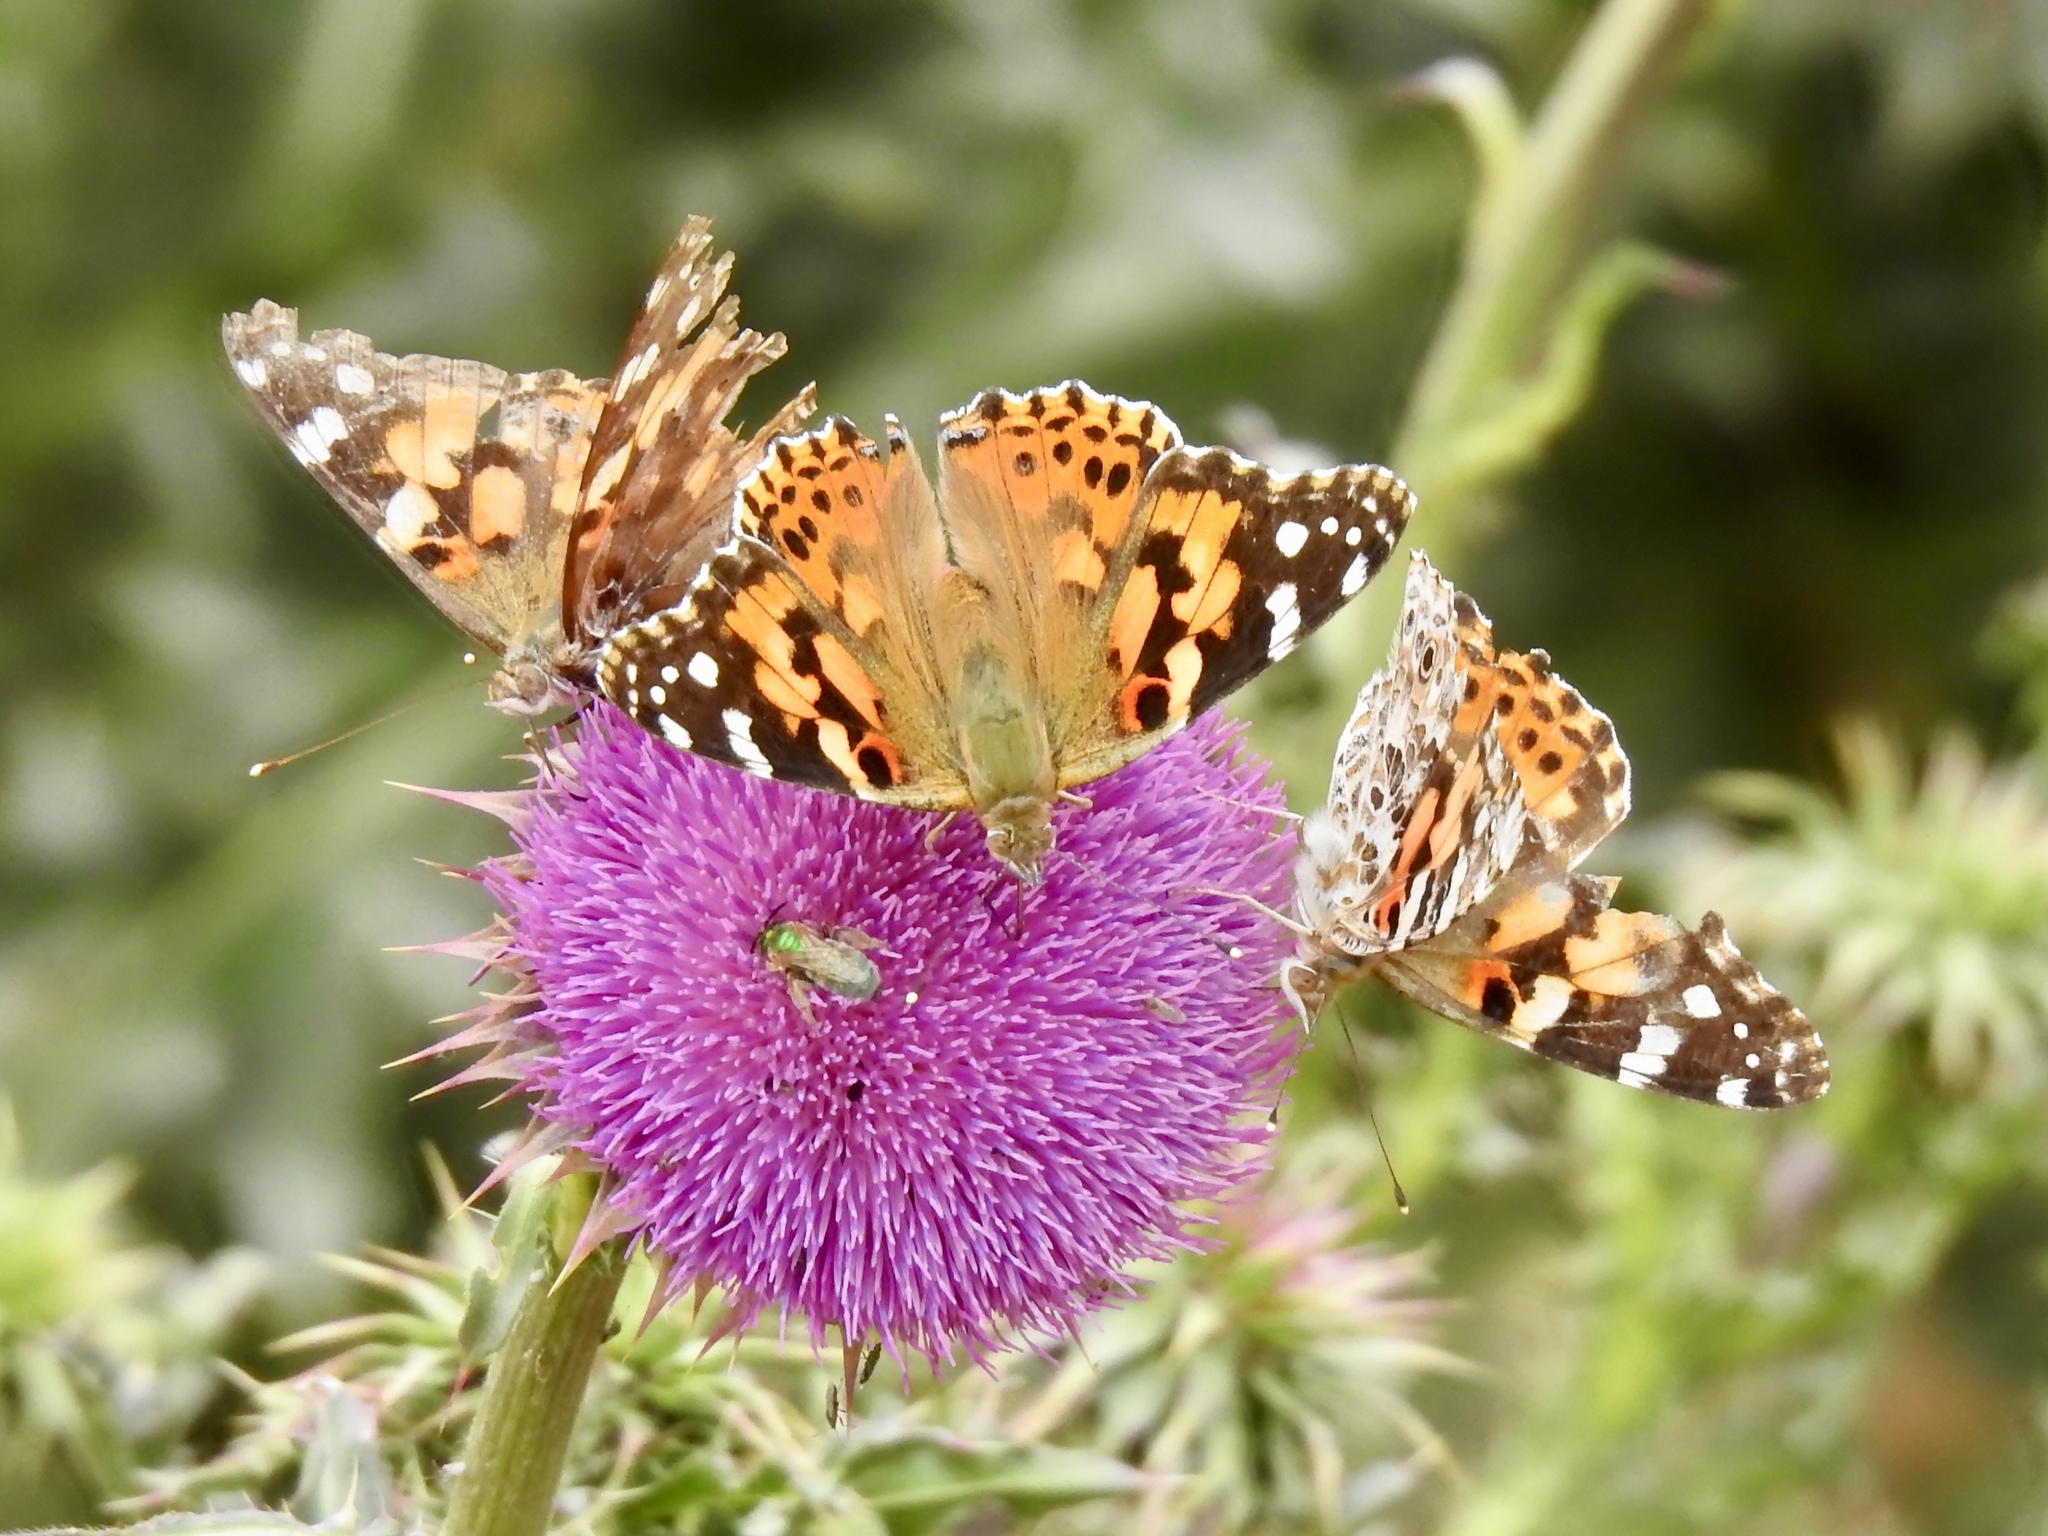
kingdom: Animalia
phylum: Arthropoda
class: Insecta
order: Lepidoptera
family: Nymphalidae
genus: Vanessa
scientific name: Vanessa cardui
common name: Painted lady
